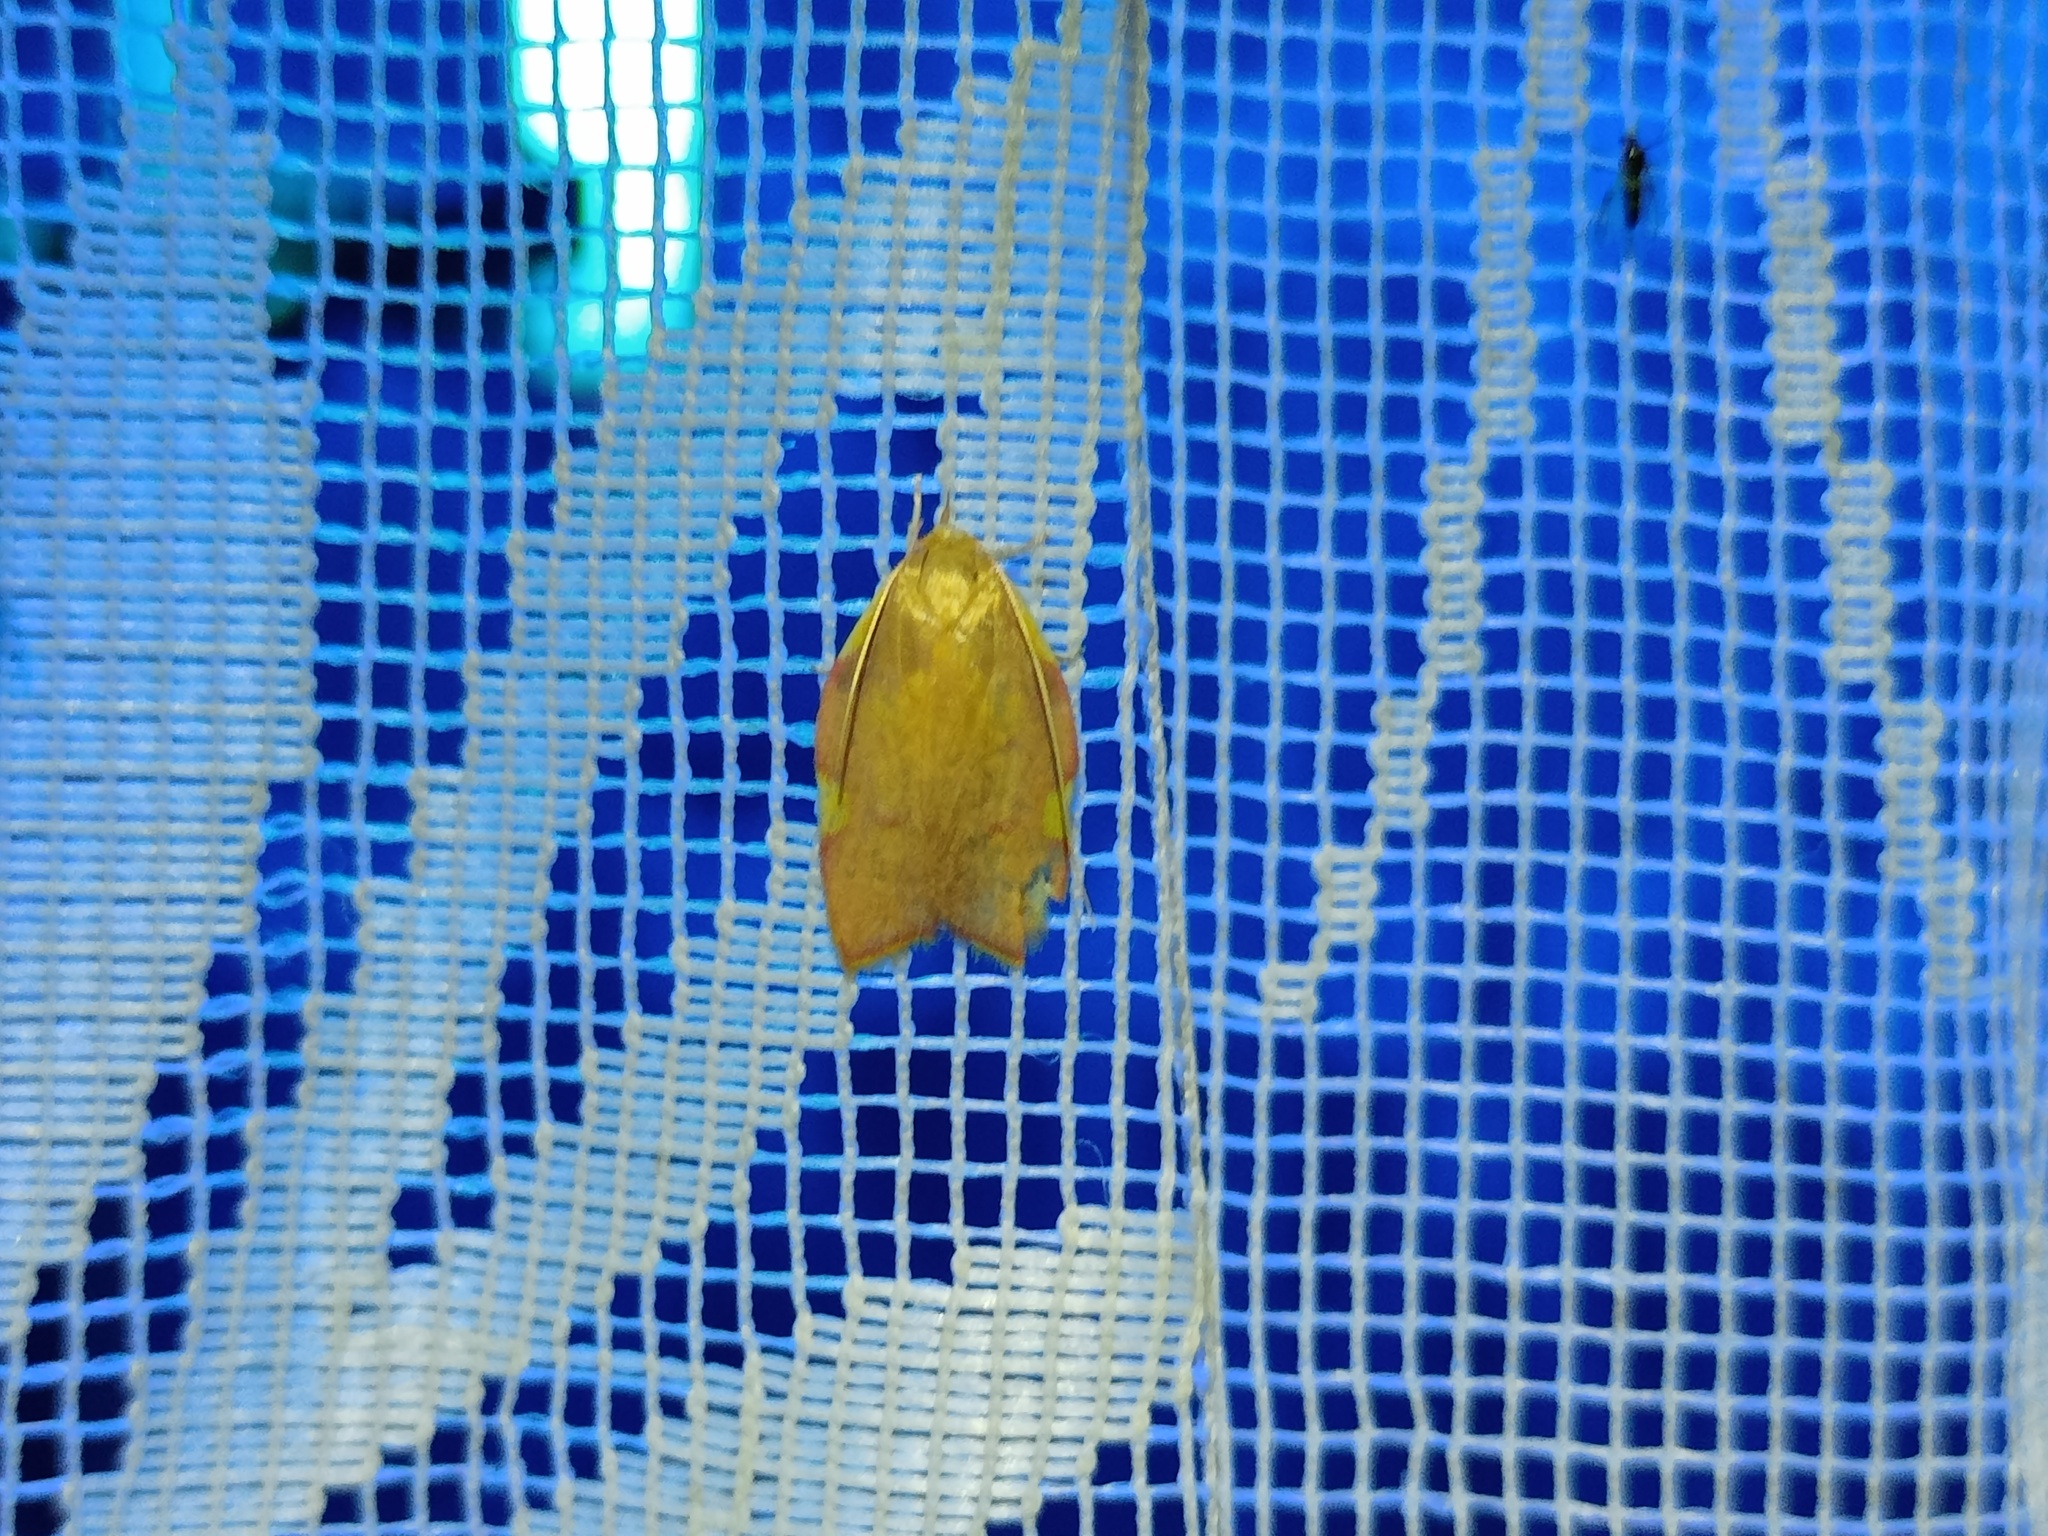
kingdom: Animalia
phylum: Arthropoda
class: Insecta
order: Lepidoptera
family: Peleopodidae
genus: Carcina
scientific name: Carcina quercana
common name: Moth
